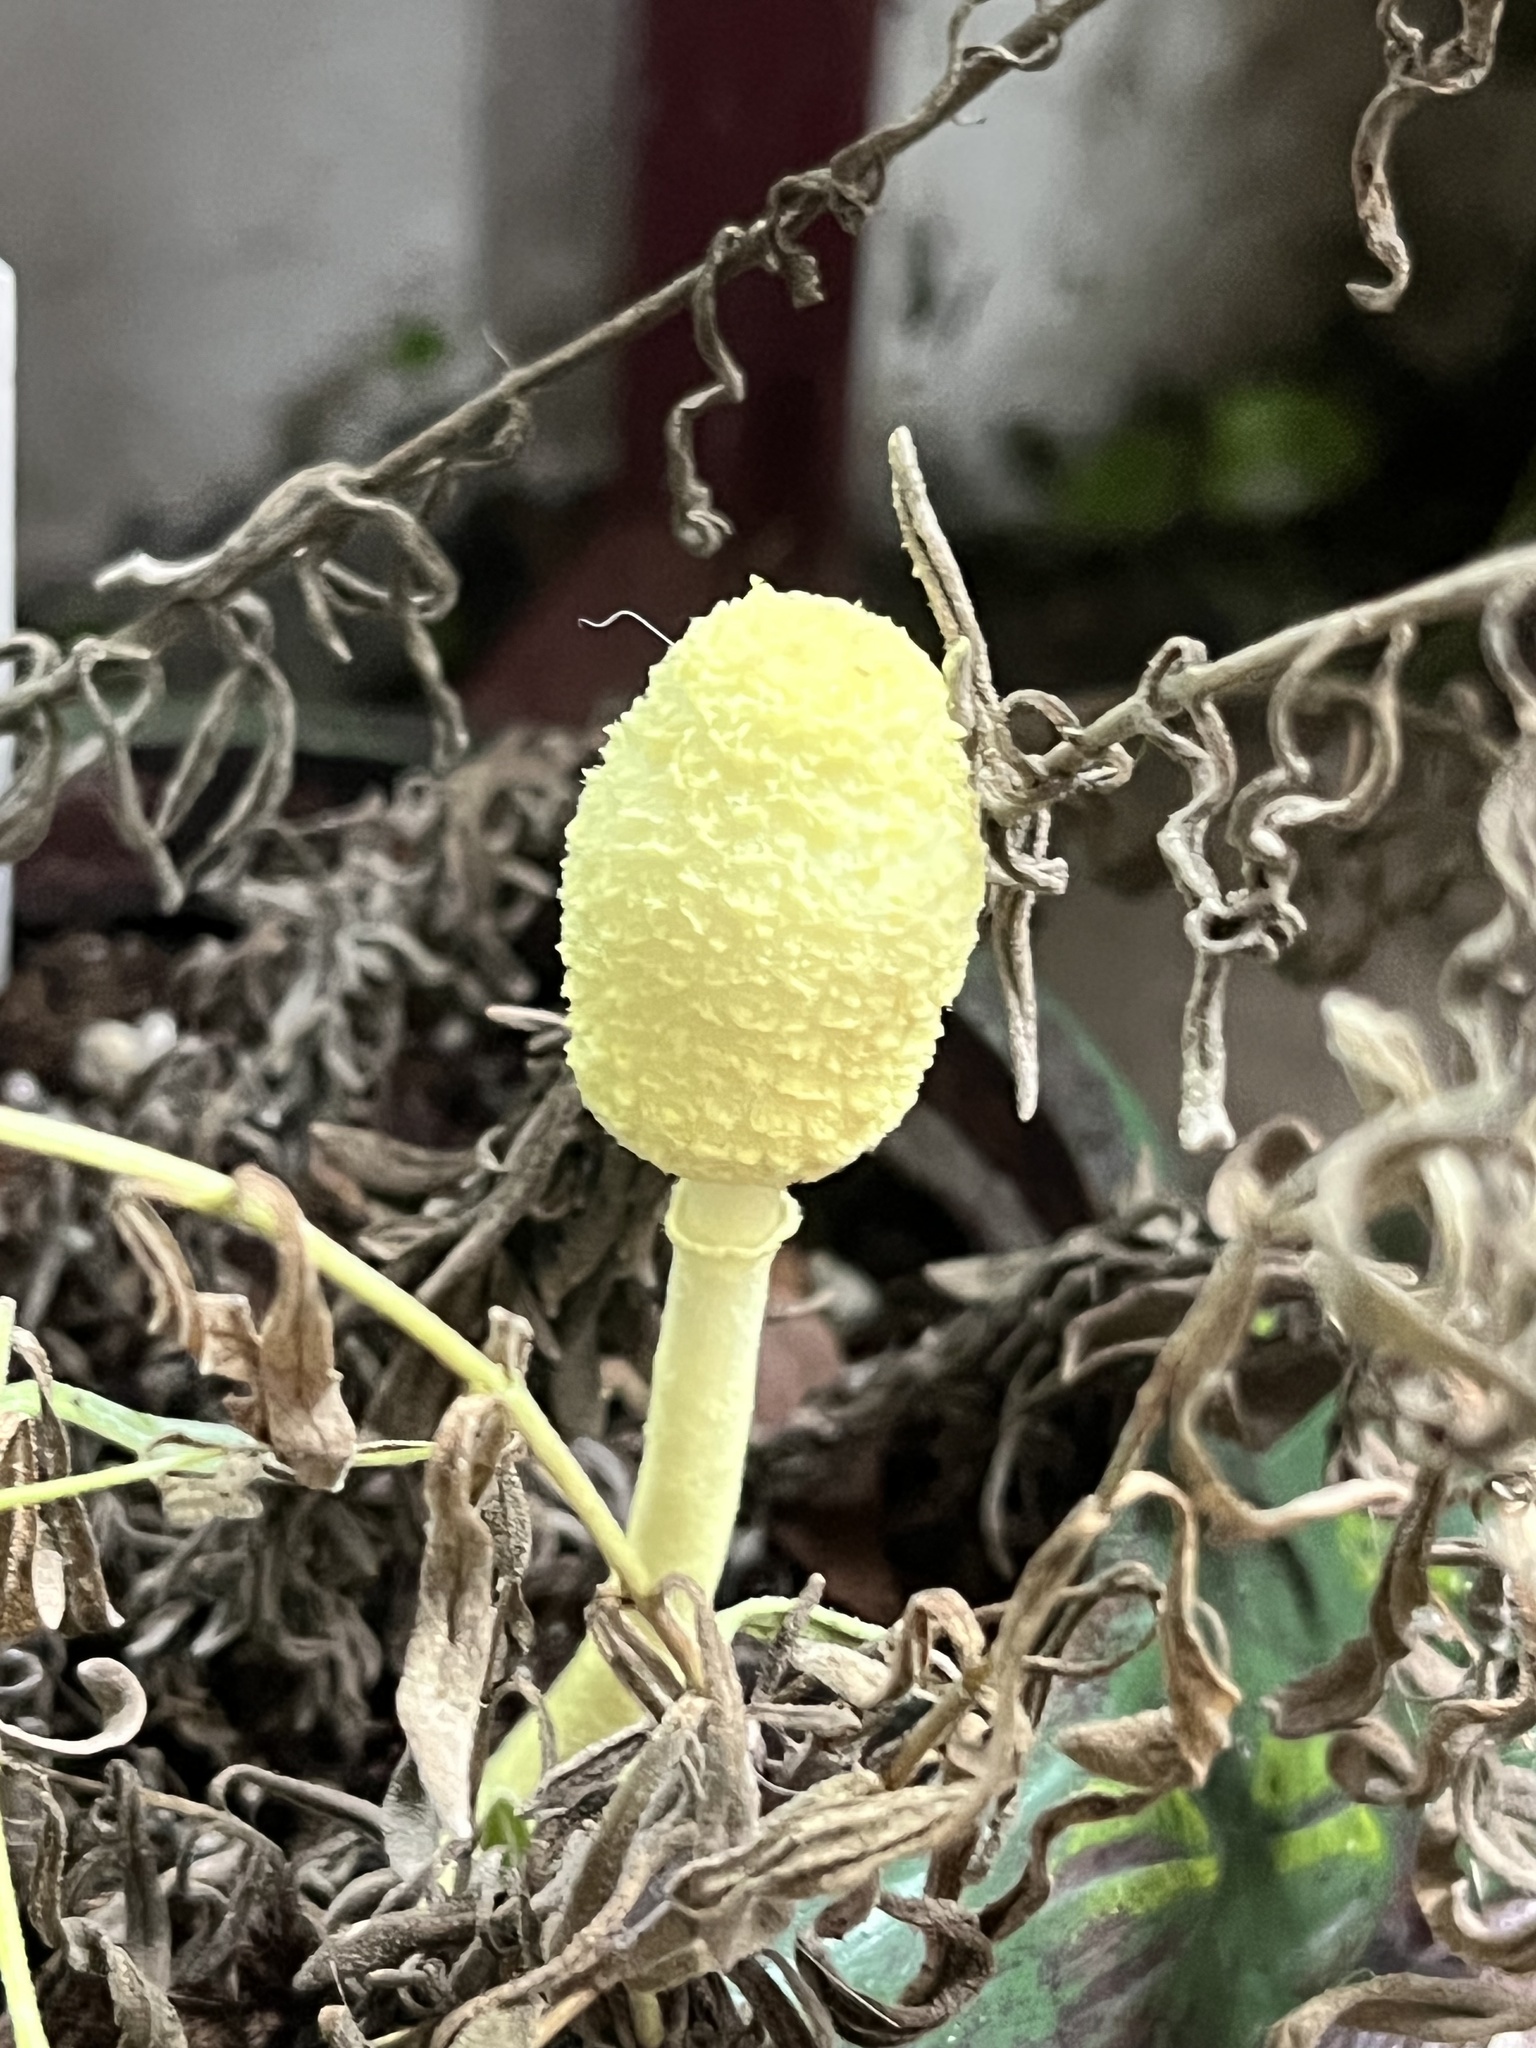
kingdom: Fungi
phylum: Basidiomycota
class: Agaricomycetes
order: Agaricales
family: Agaricaceae
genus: Leucocoprinus
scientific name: Leucocoprinus birnbaumii
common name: Plantpot dapperling
